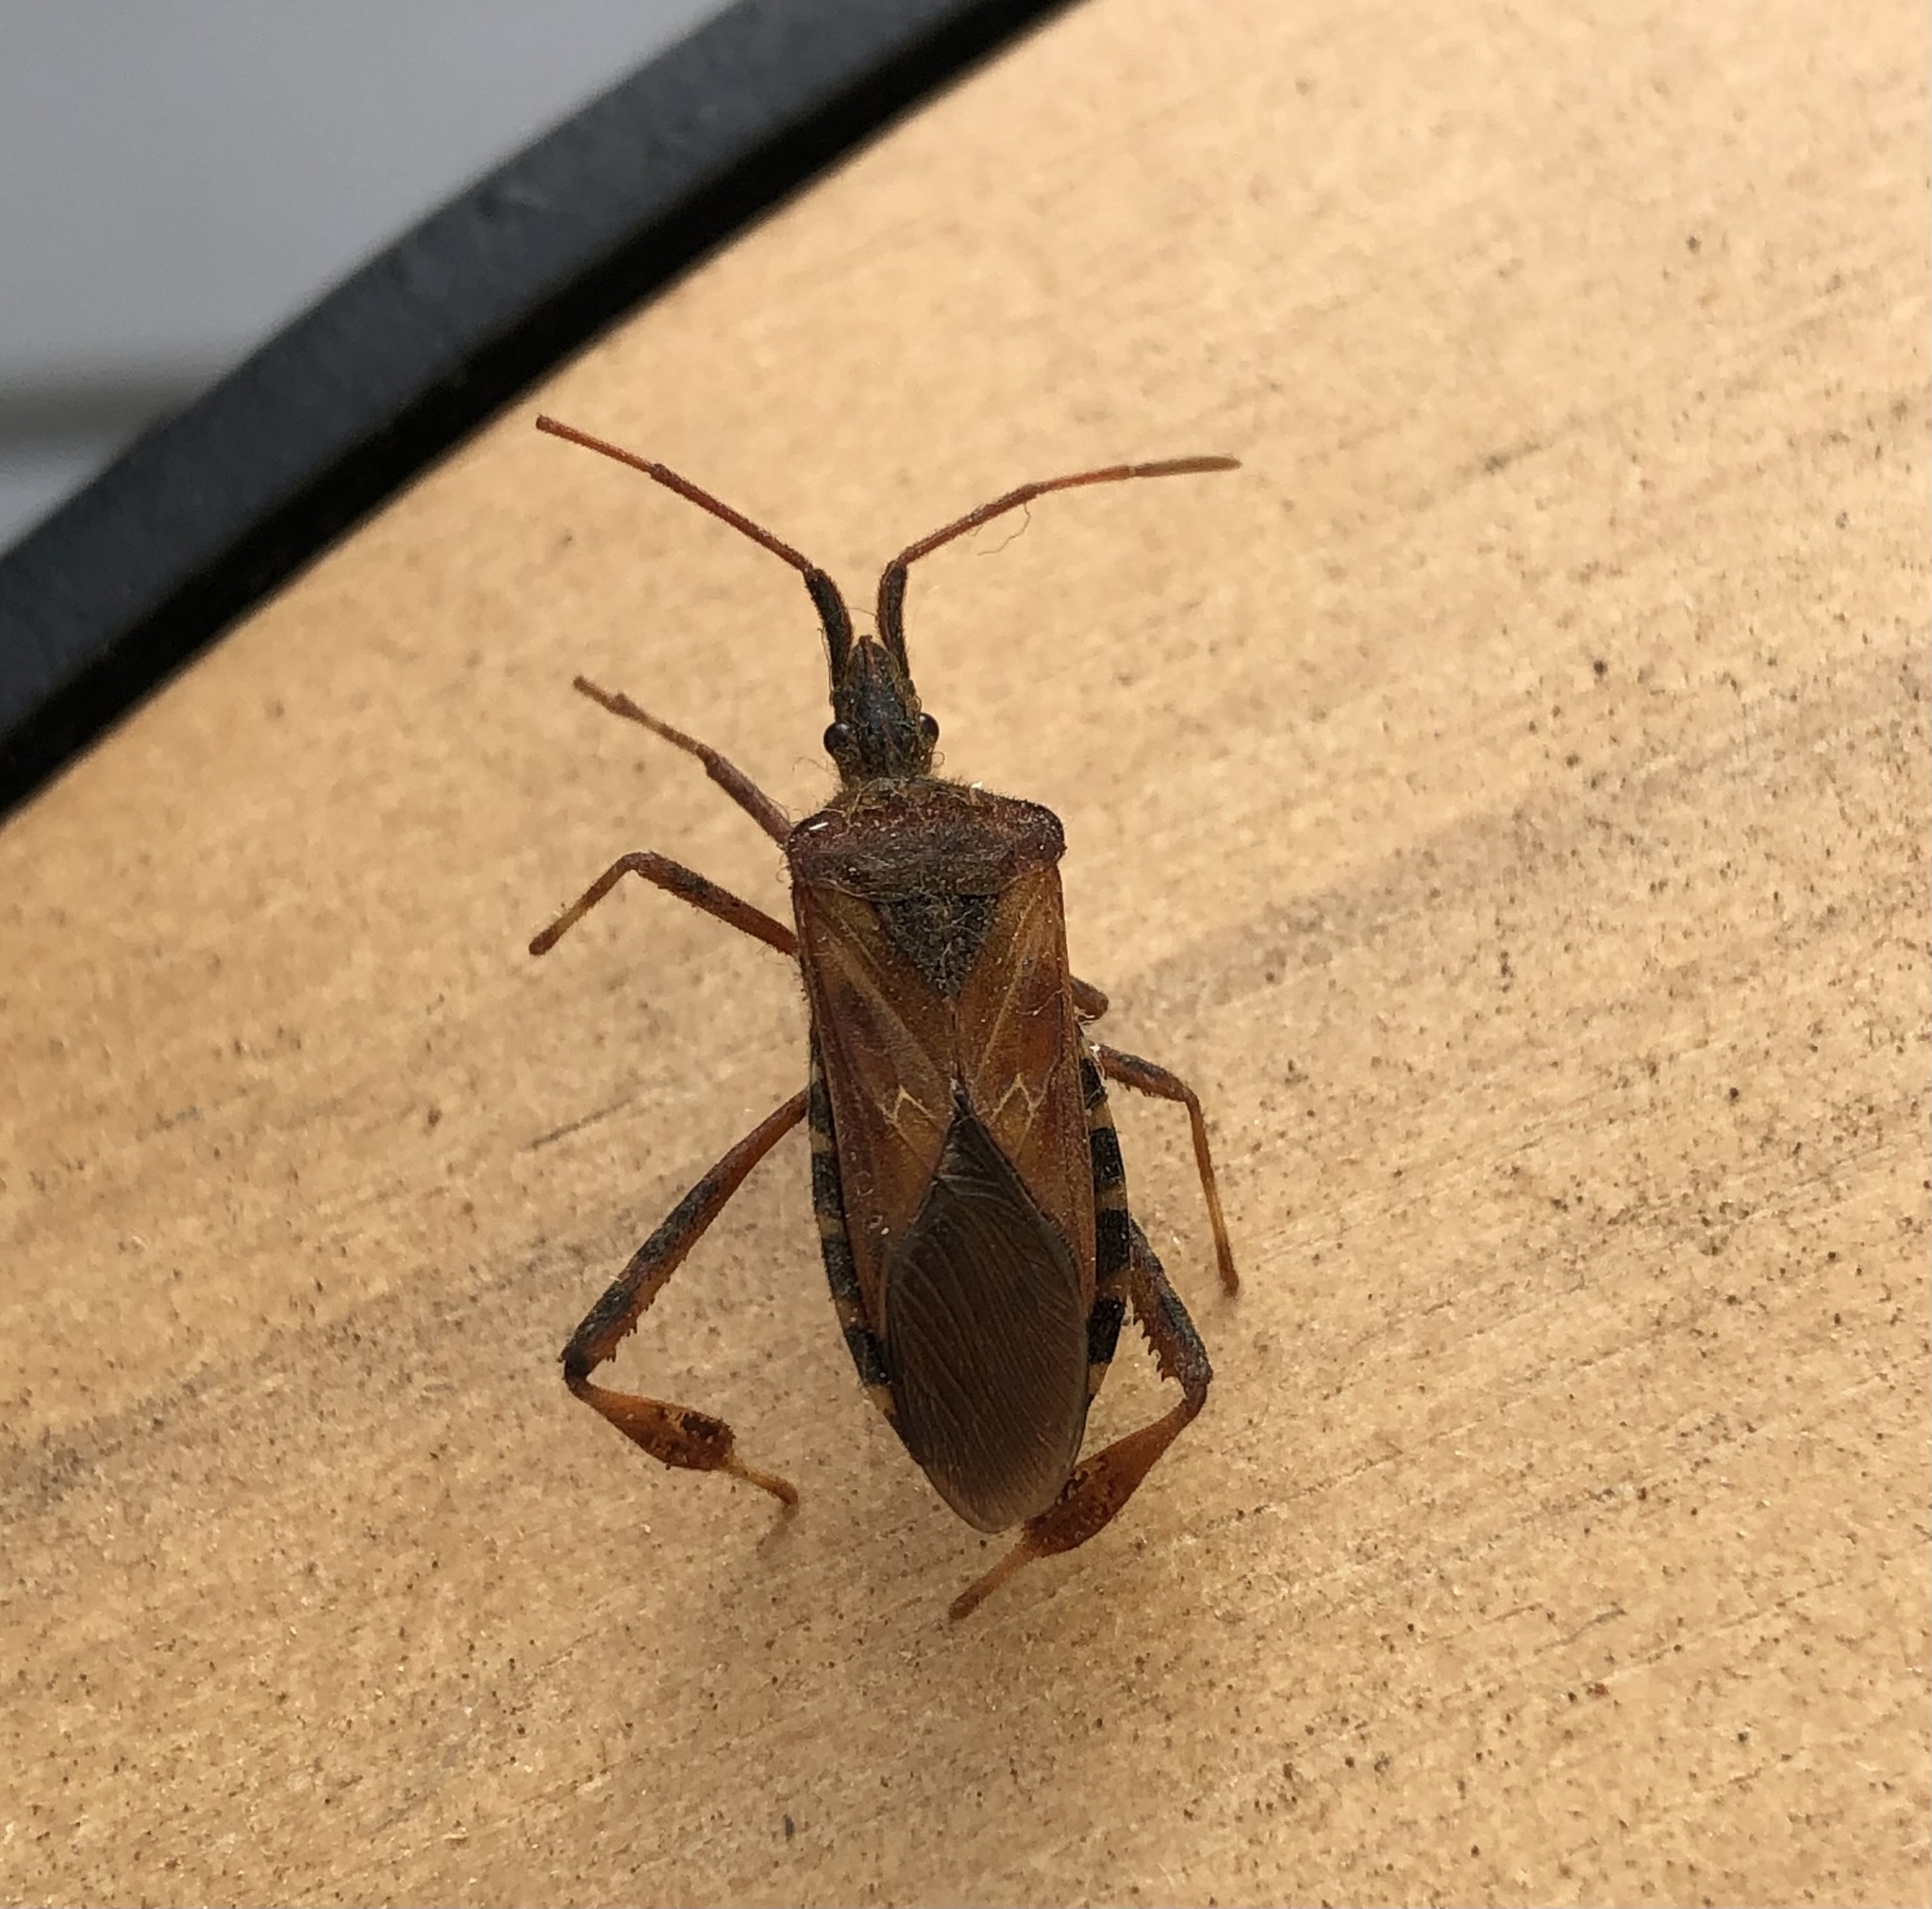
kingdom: Animalia
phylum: Arthropoda
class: Insecta
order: Hemiptera
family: Coreidae
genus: Leptoglossus
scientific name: Leptoglossus occidentalis
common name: Western conifer-seed bug
